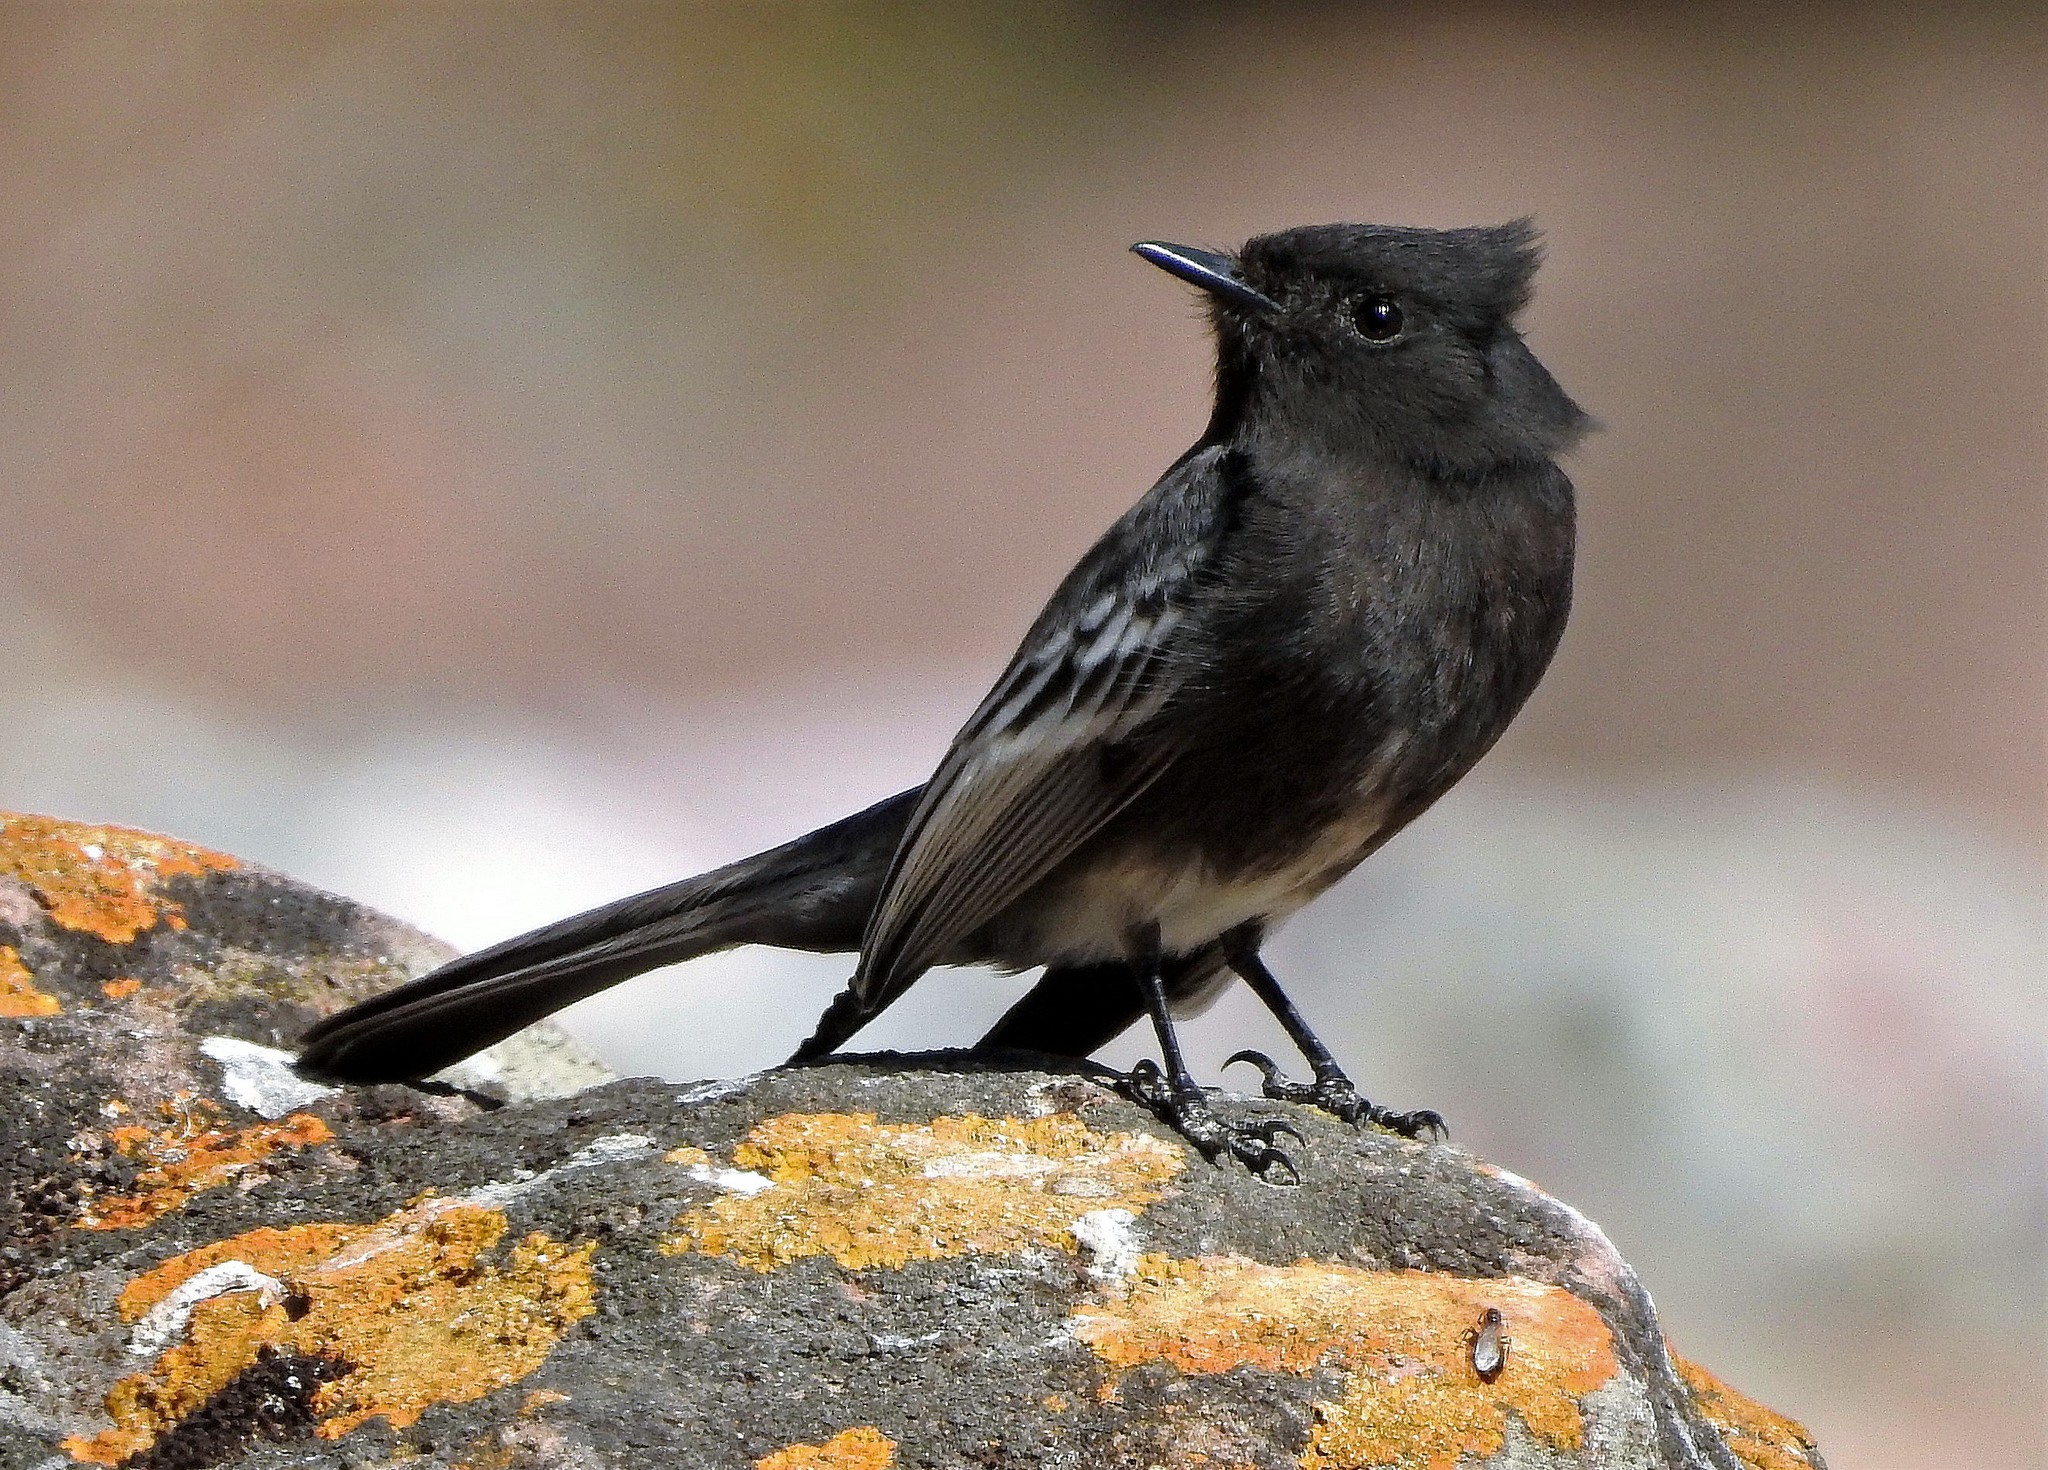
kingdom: Animalia
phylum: Chordata
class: Aves
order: Passeriformes
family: Tyrannidae
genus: Sayornis
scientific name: Sayornis nigricans
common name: Black phoebe
